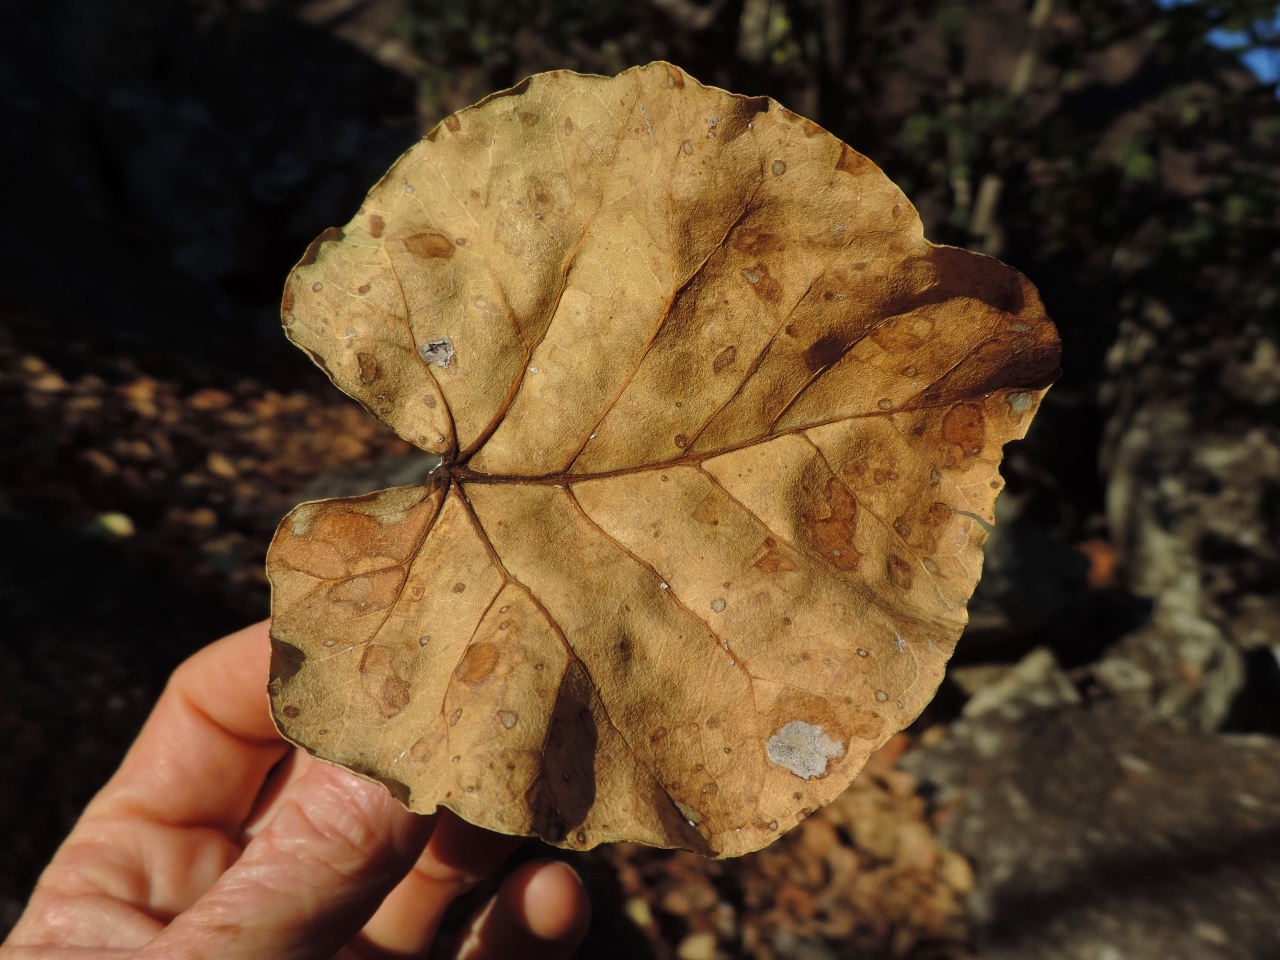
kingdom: Plantae
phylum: Tracheophyta
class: Magnoliopsida
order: Rosales
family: Moraceae
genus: Ficus
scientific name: Ficus abutilifolia
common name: Large-leaved rock fig
